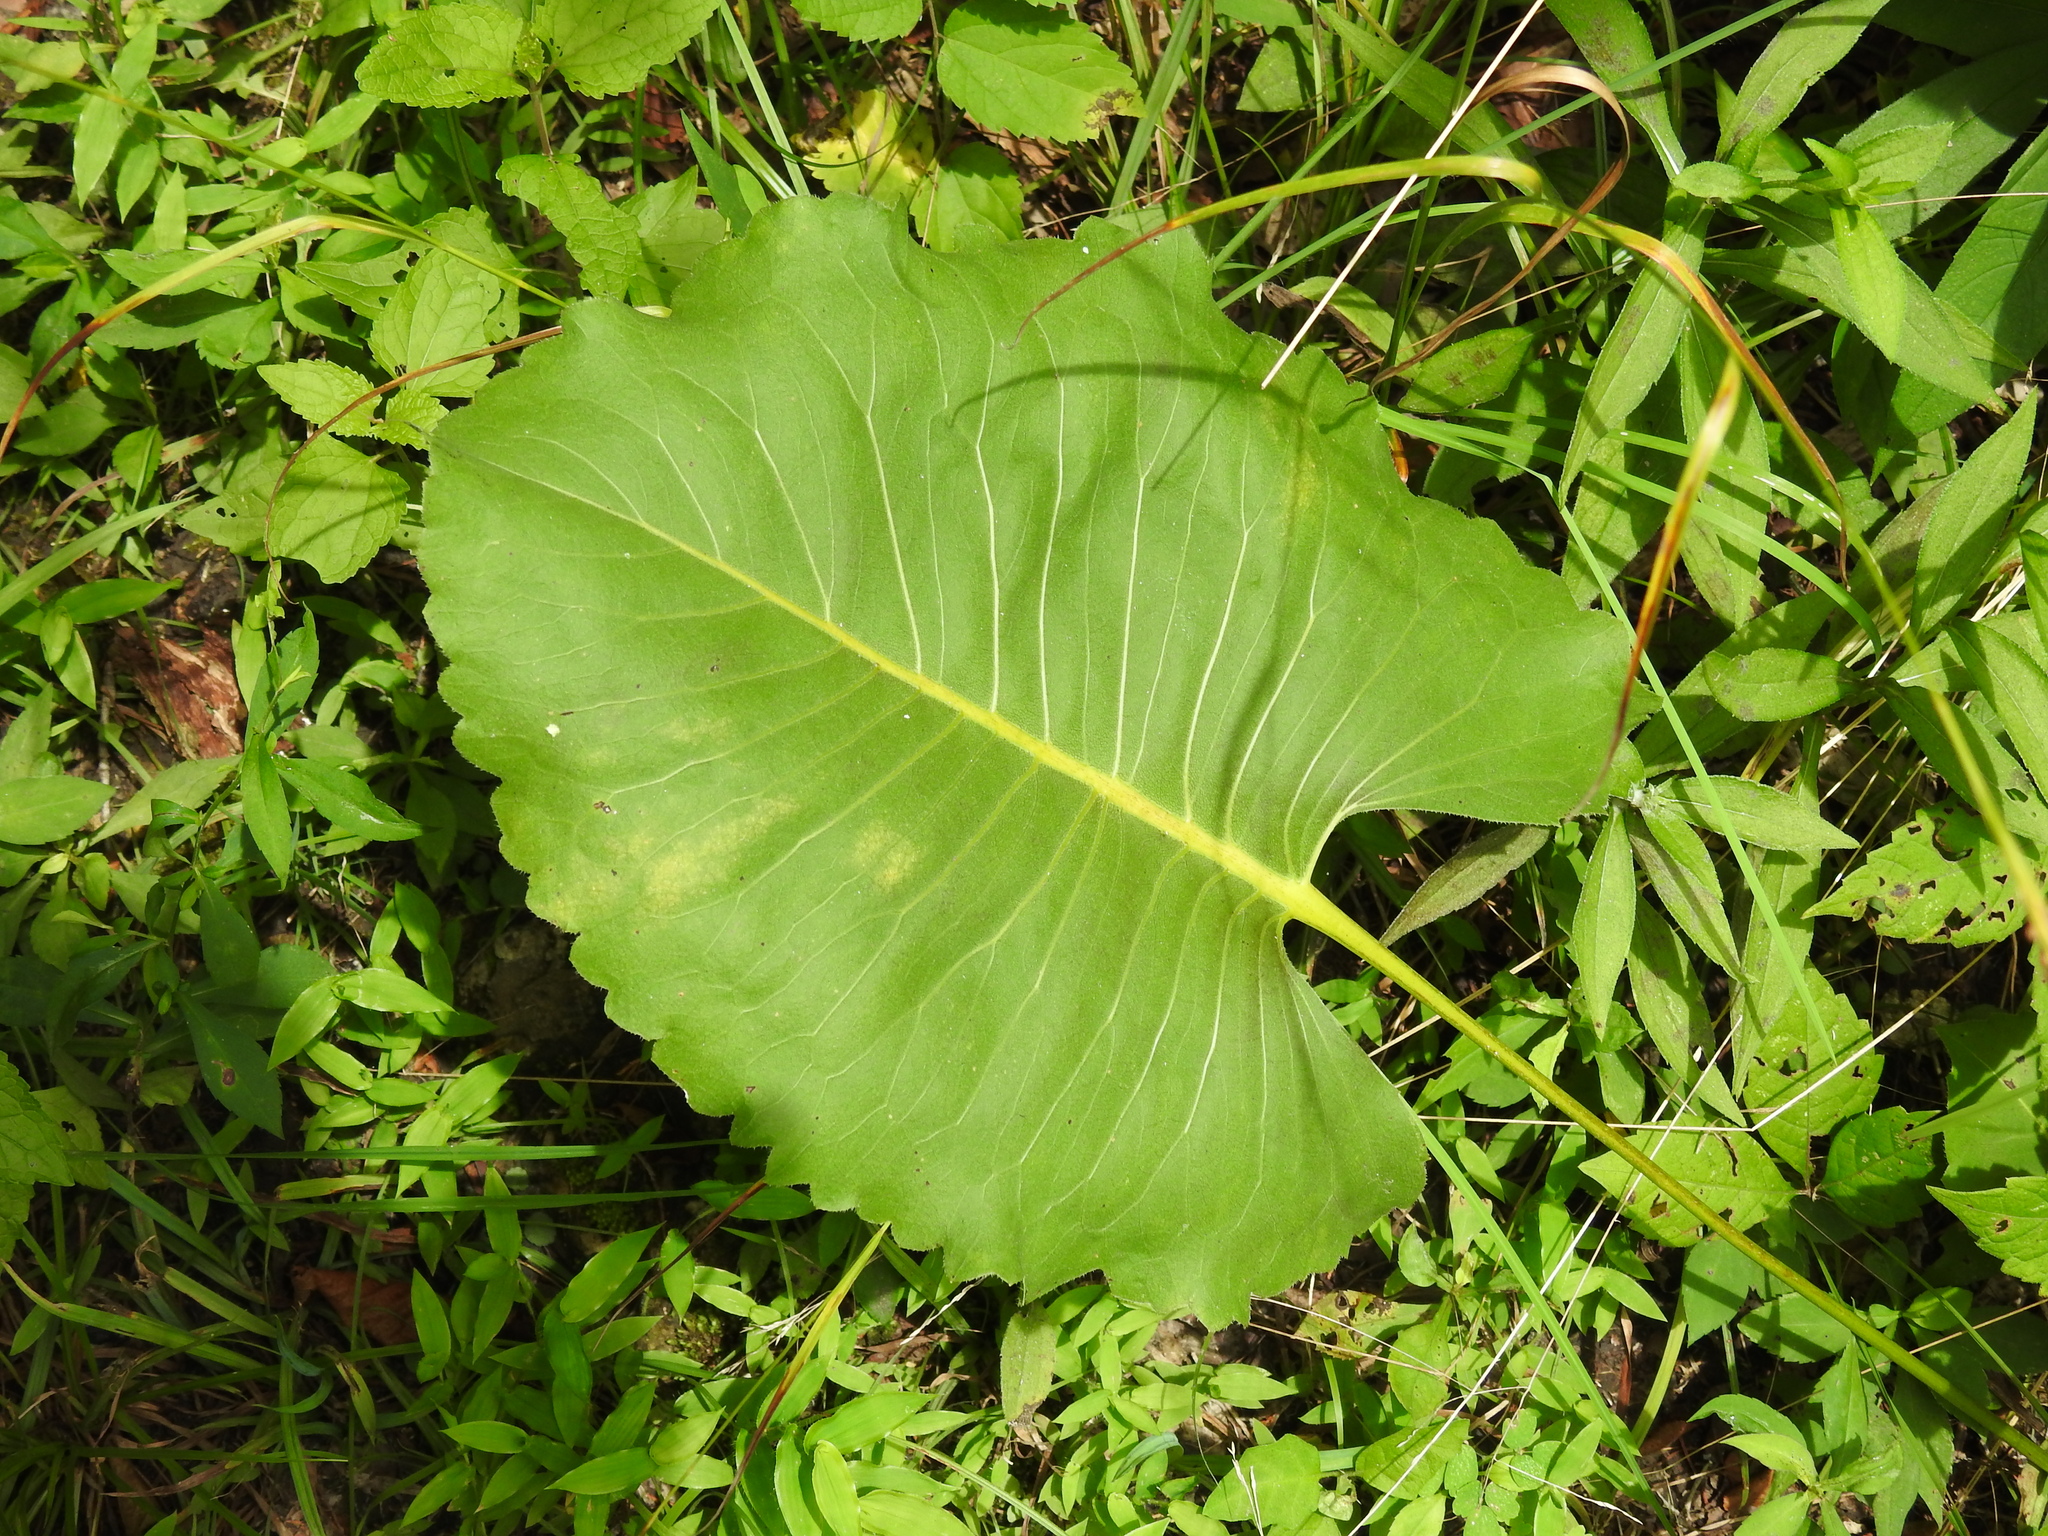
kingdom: Plantae
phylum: Tracheophyta
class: Magnoliopsida
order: Asterales
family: Asteraceae
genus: Silphium
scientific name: Silphium terebinthinaceum
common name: Basal-leaf rosinweed
